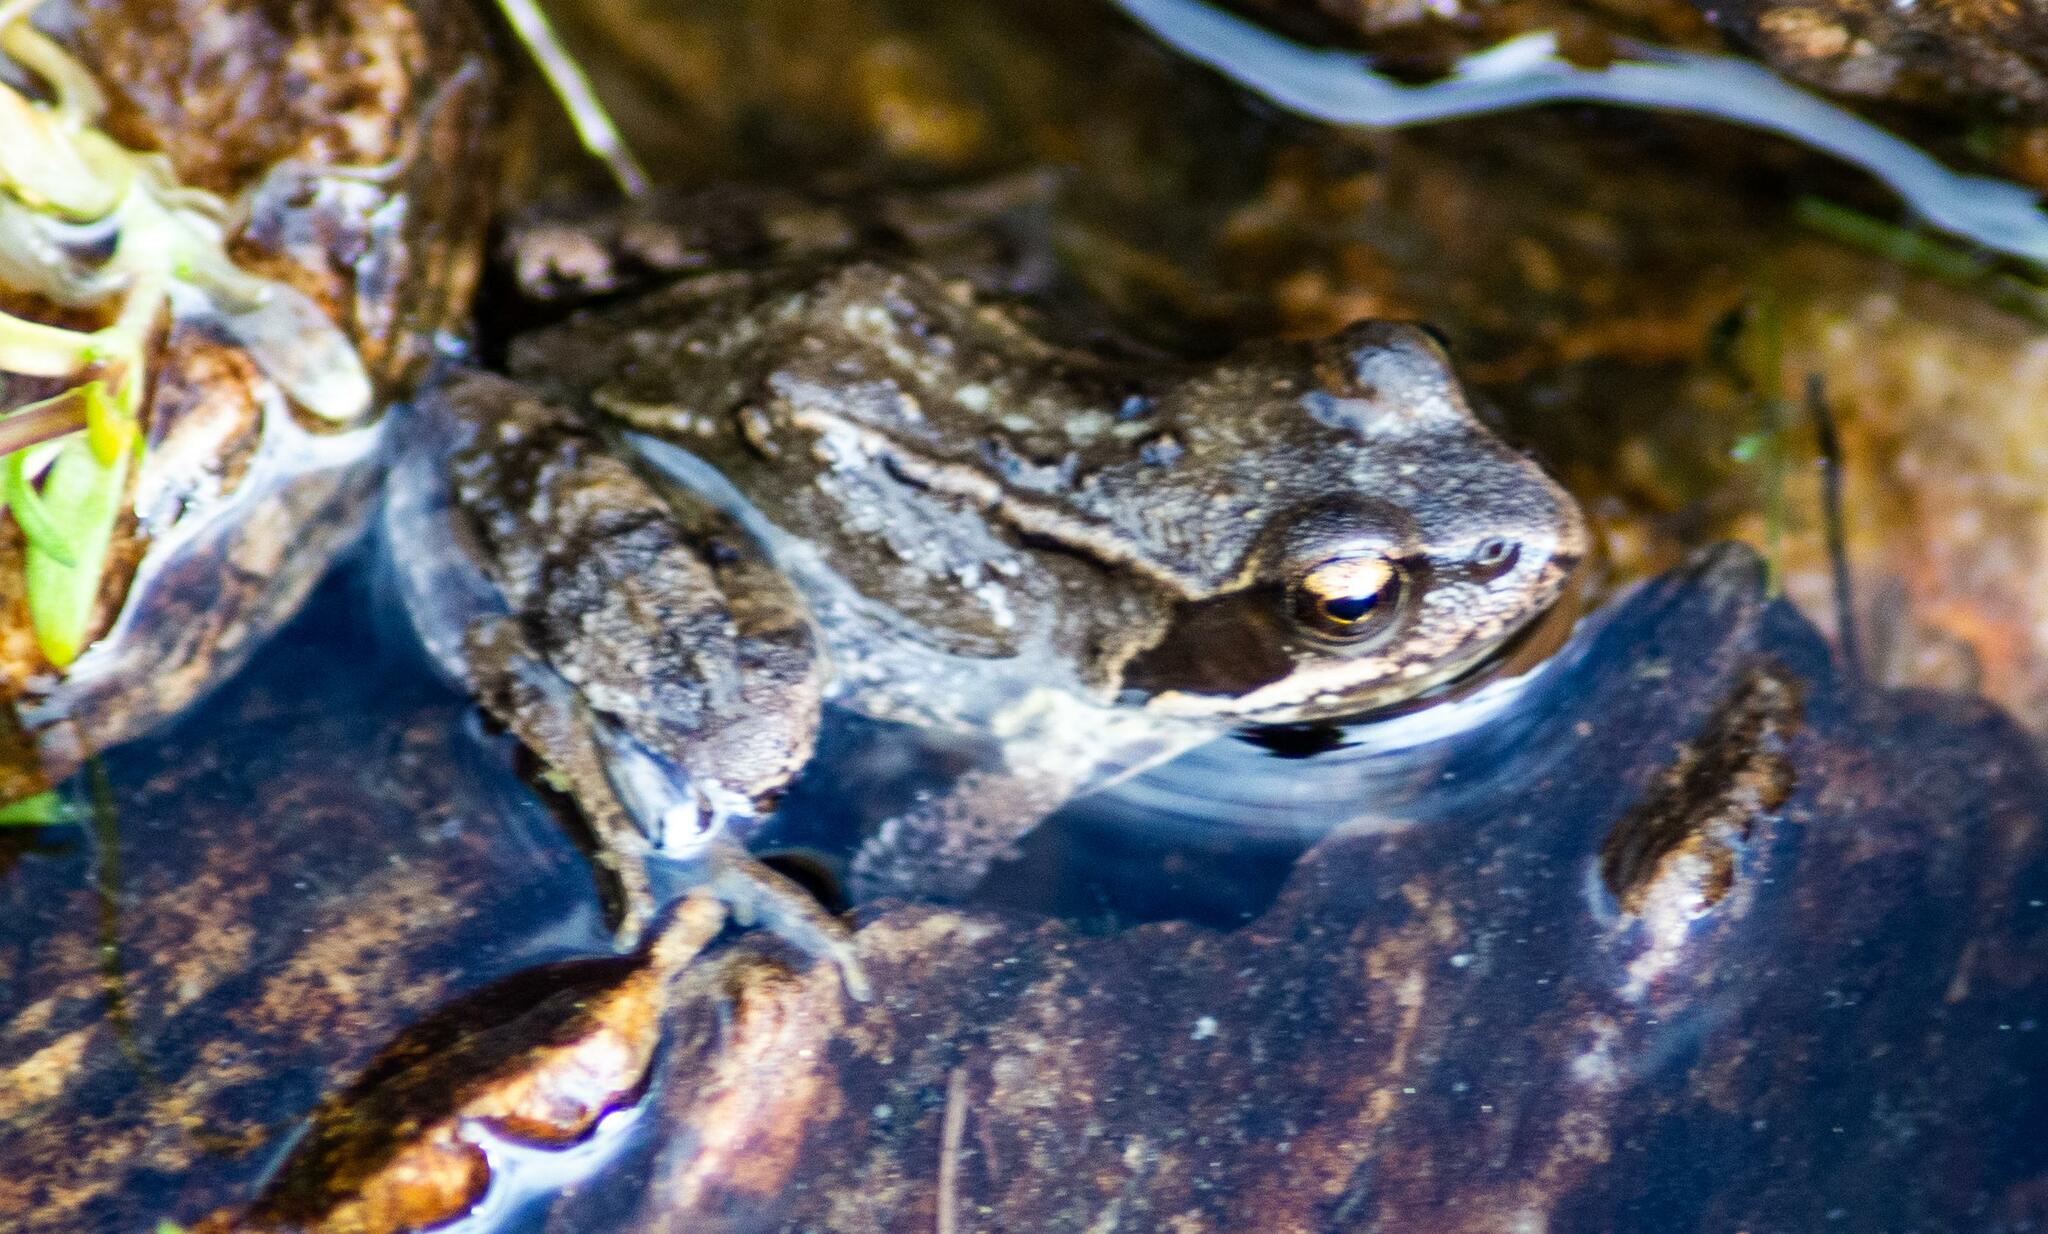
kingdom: Animalia
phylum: Chordata
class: Amphibia
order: Anura
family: Ranidae
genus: Rana
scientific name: Rana temporaria
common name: Common frog
